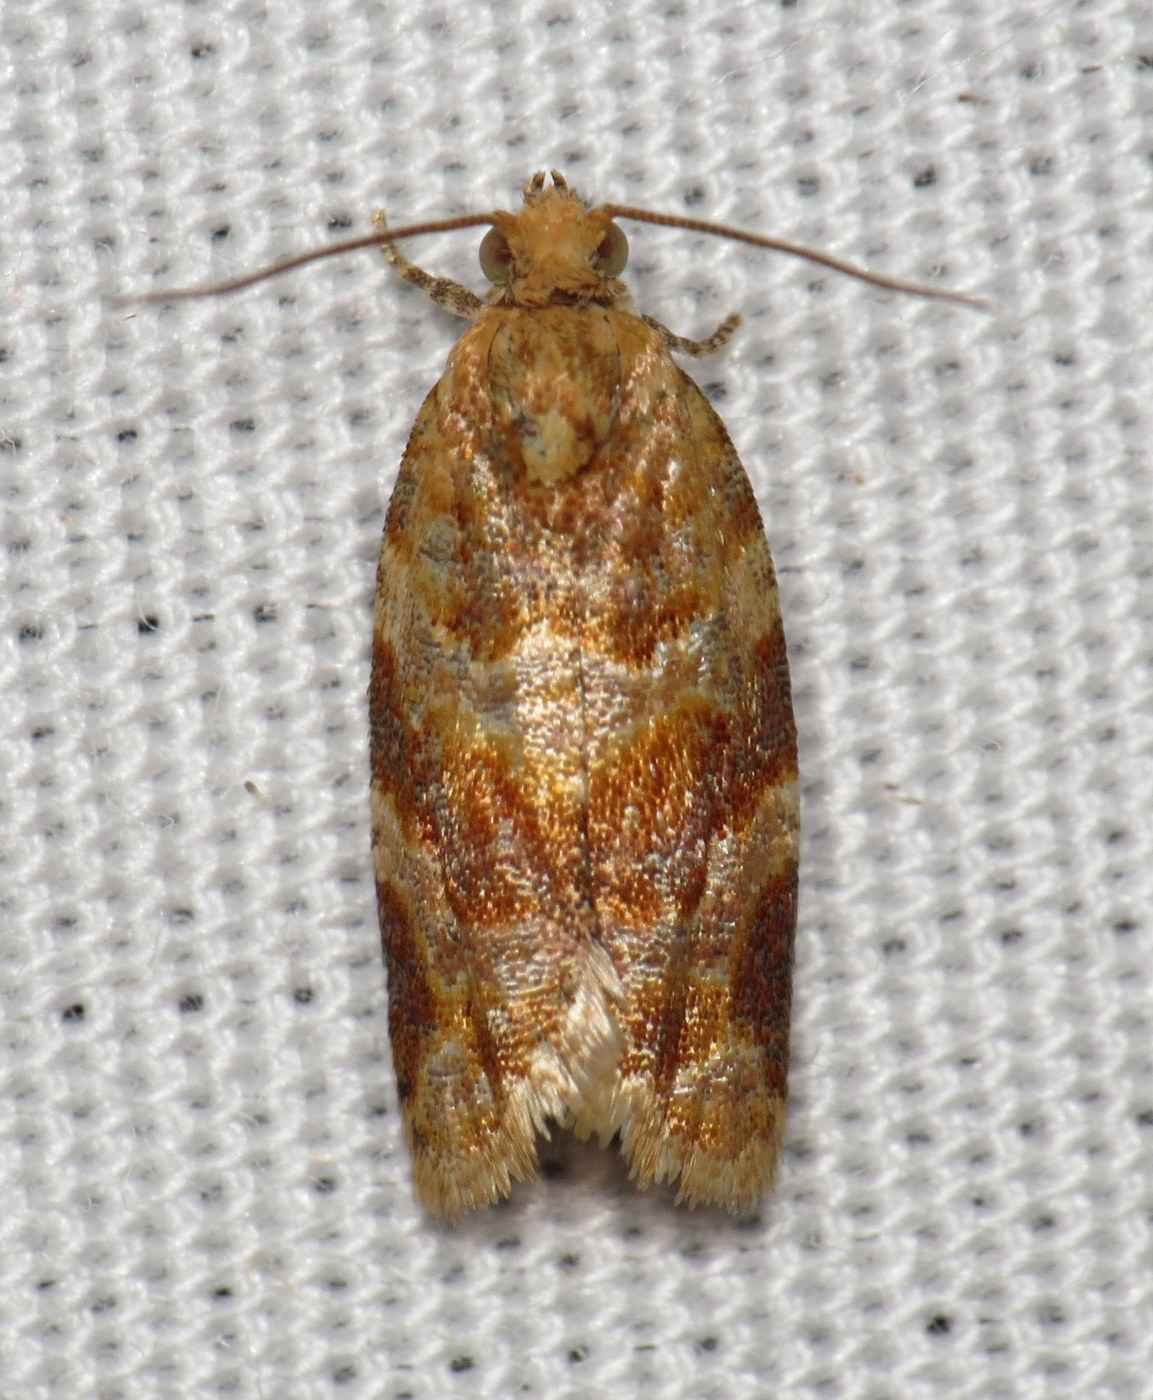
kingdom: Animalia
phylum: Arthropoda
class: Insecta
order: Lepidoptera
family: Tortricidae
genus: Argyrotaenia
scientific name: Argyrotaenia pinatubana
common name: Pine tube moth
